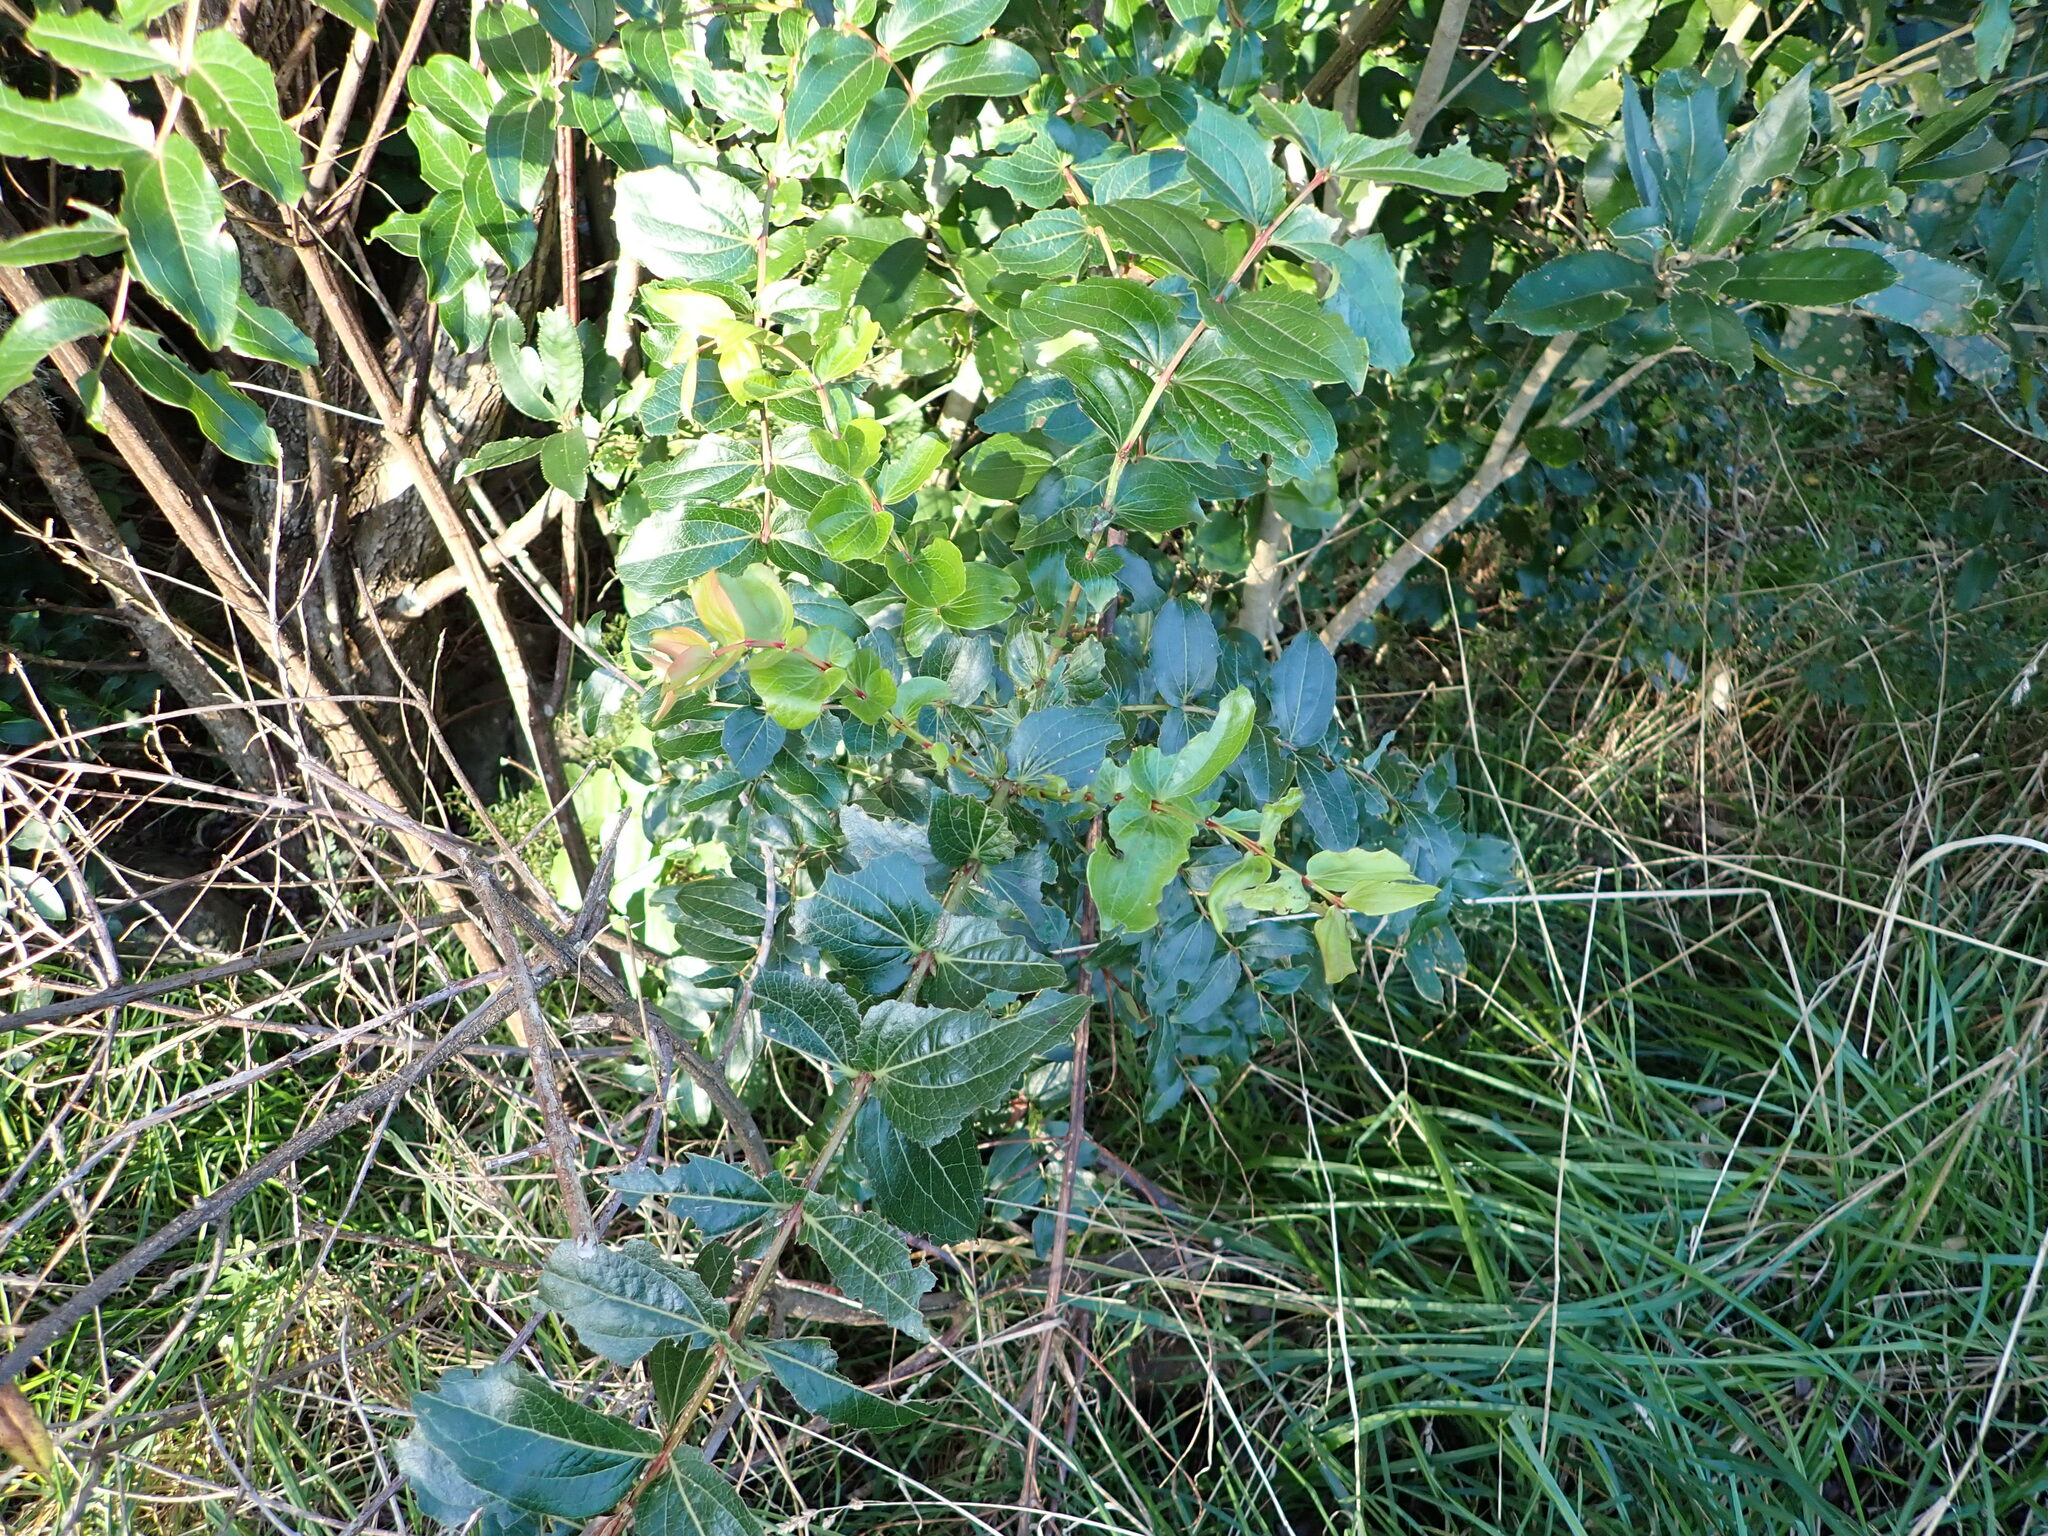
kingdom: Plantae
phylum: Tracheophyta
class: Magnoliopsida
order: Cucurbitales
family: Coriariaceae
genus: Coriaria
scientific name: Coriaria arborea
